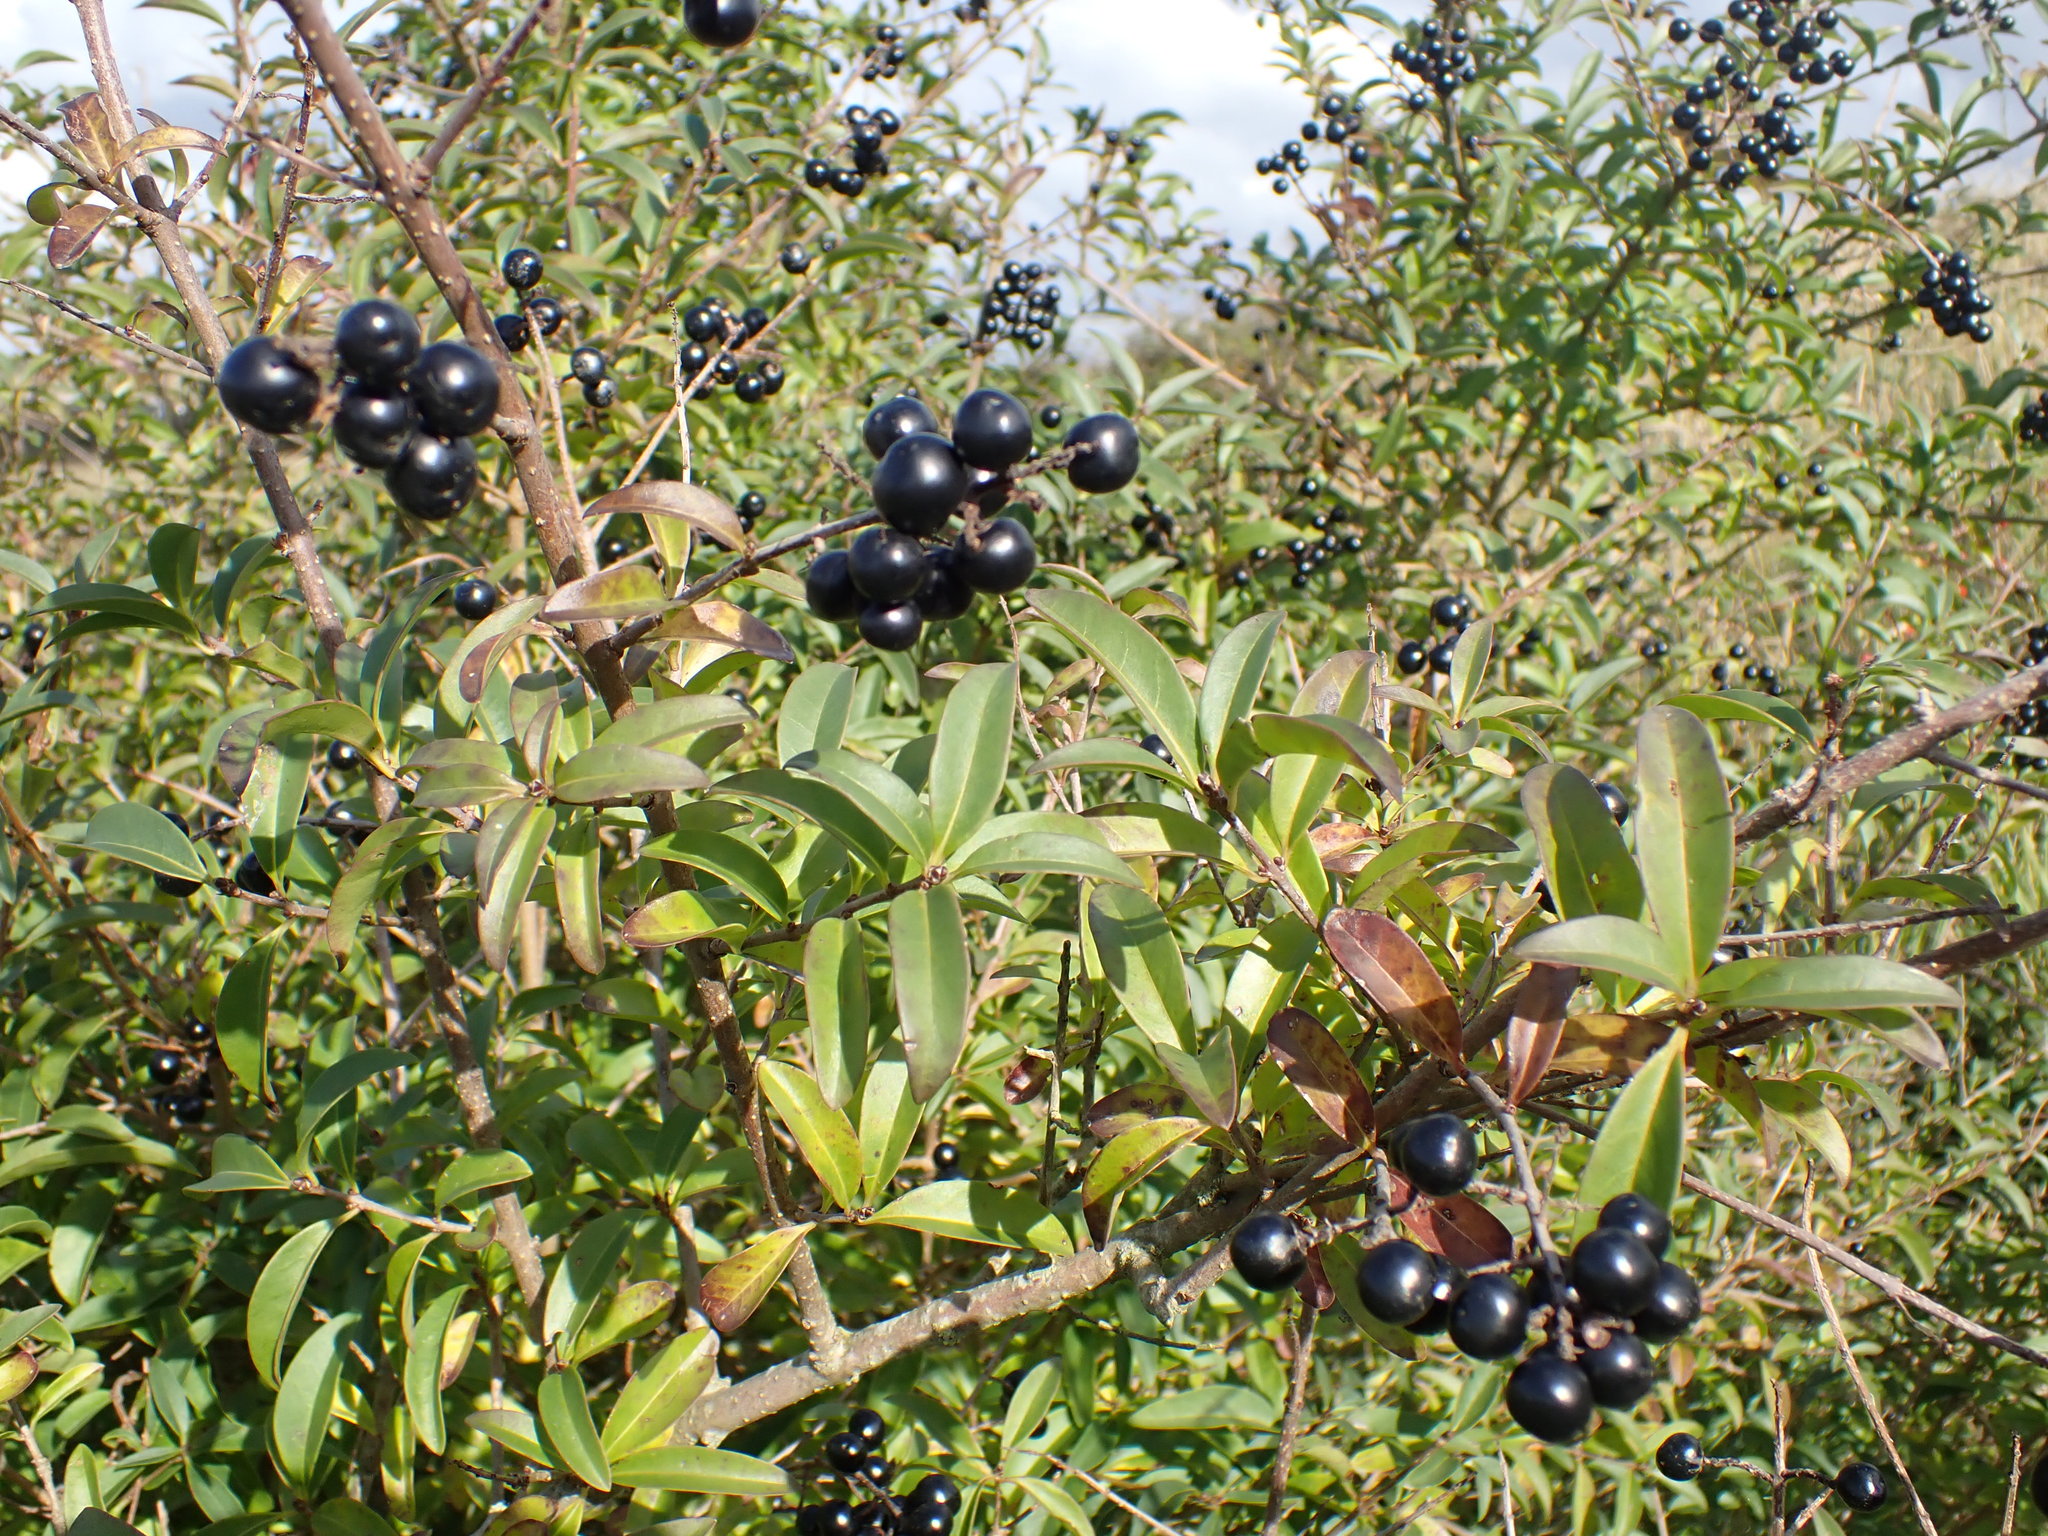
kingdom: Plantae
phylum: Tracheophyta
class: Magnoliopsida
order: Lamiales
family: Oleaceae
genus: Ligustrum
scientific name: Ligustrum vulgare
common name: Wild privet
